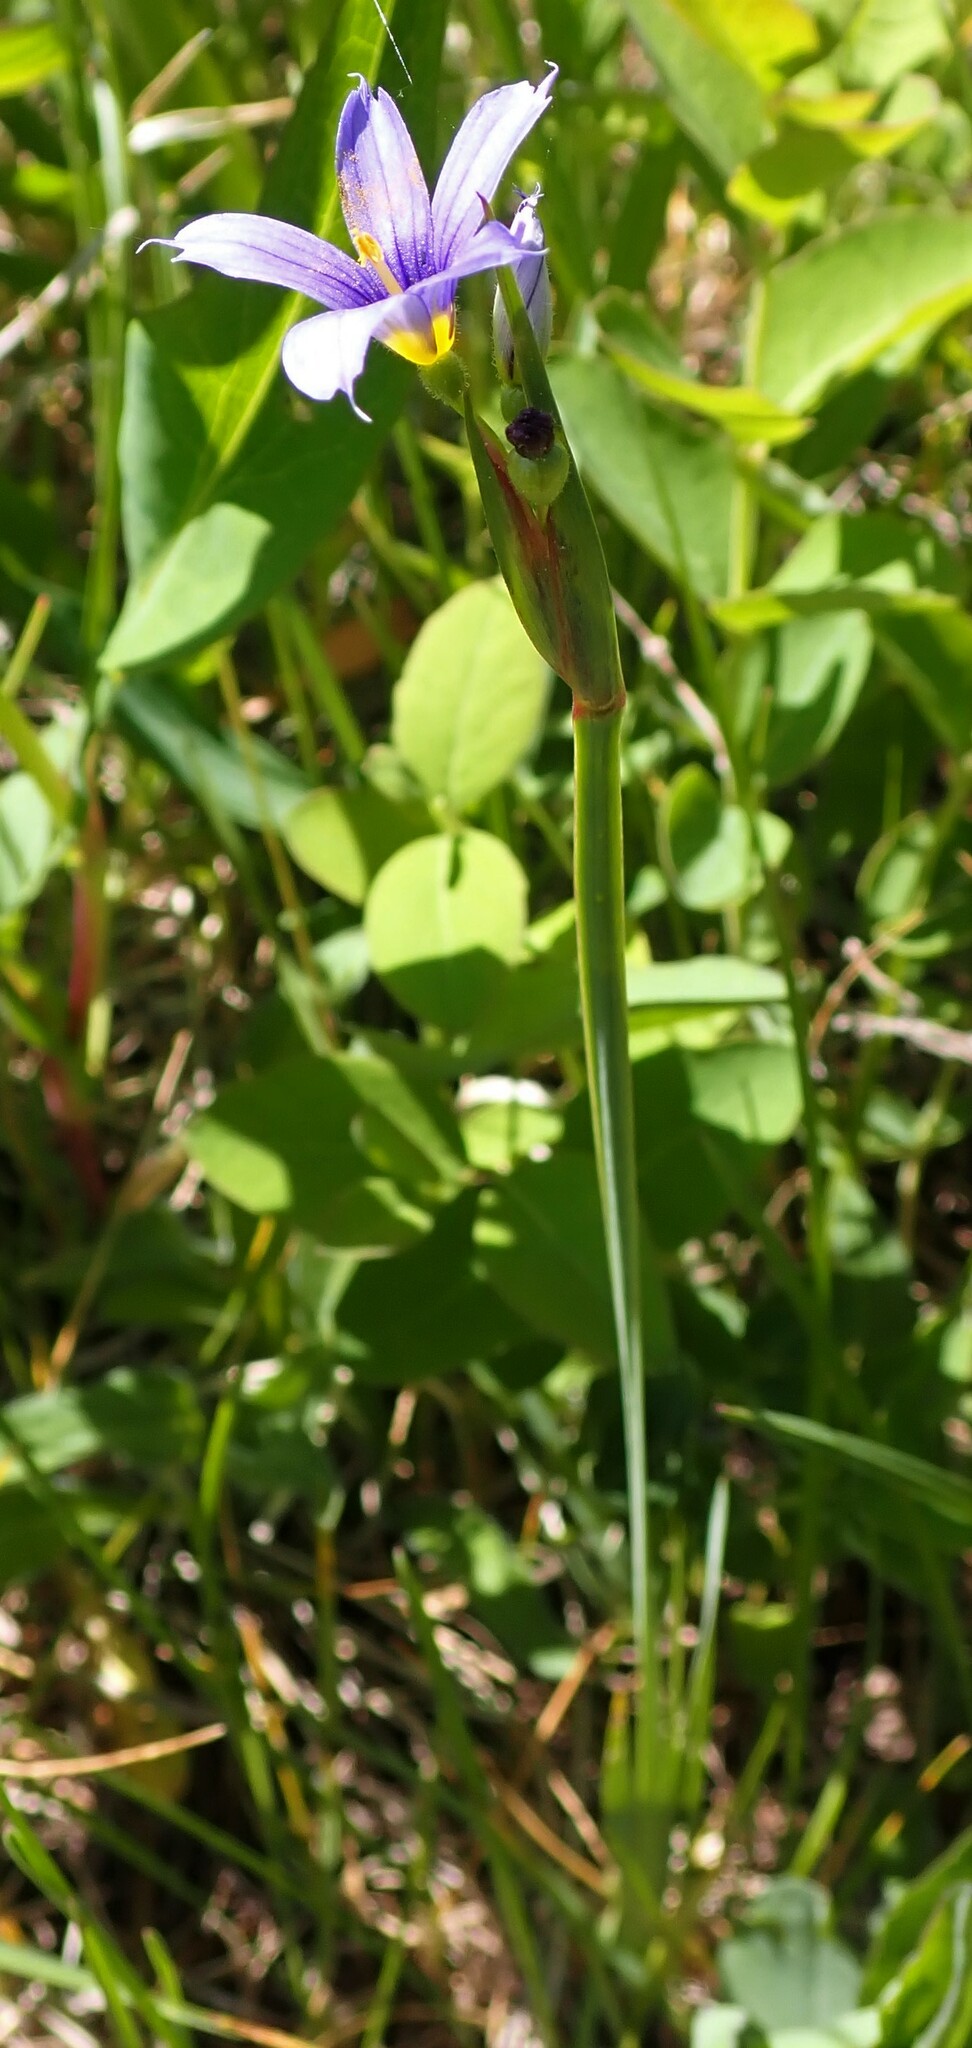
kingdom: Plantae
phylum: Tracheophyta
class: Liliopsida
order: Asparagales
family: Iridaceae
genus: Sisyrinchium
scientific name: Sisyrinchium montanum
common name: American blue-eyed-grass
